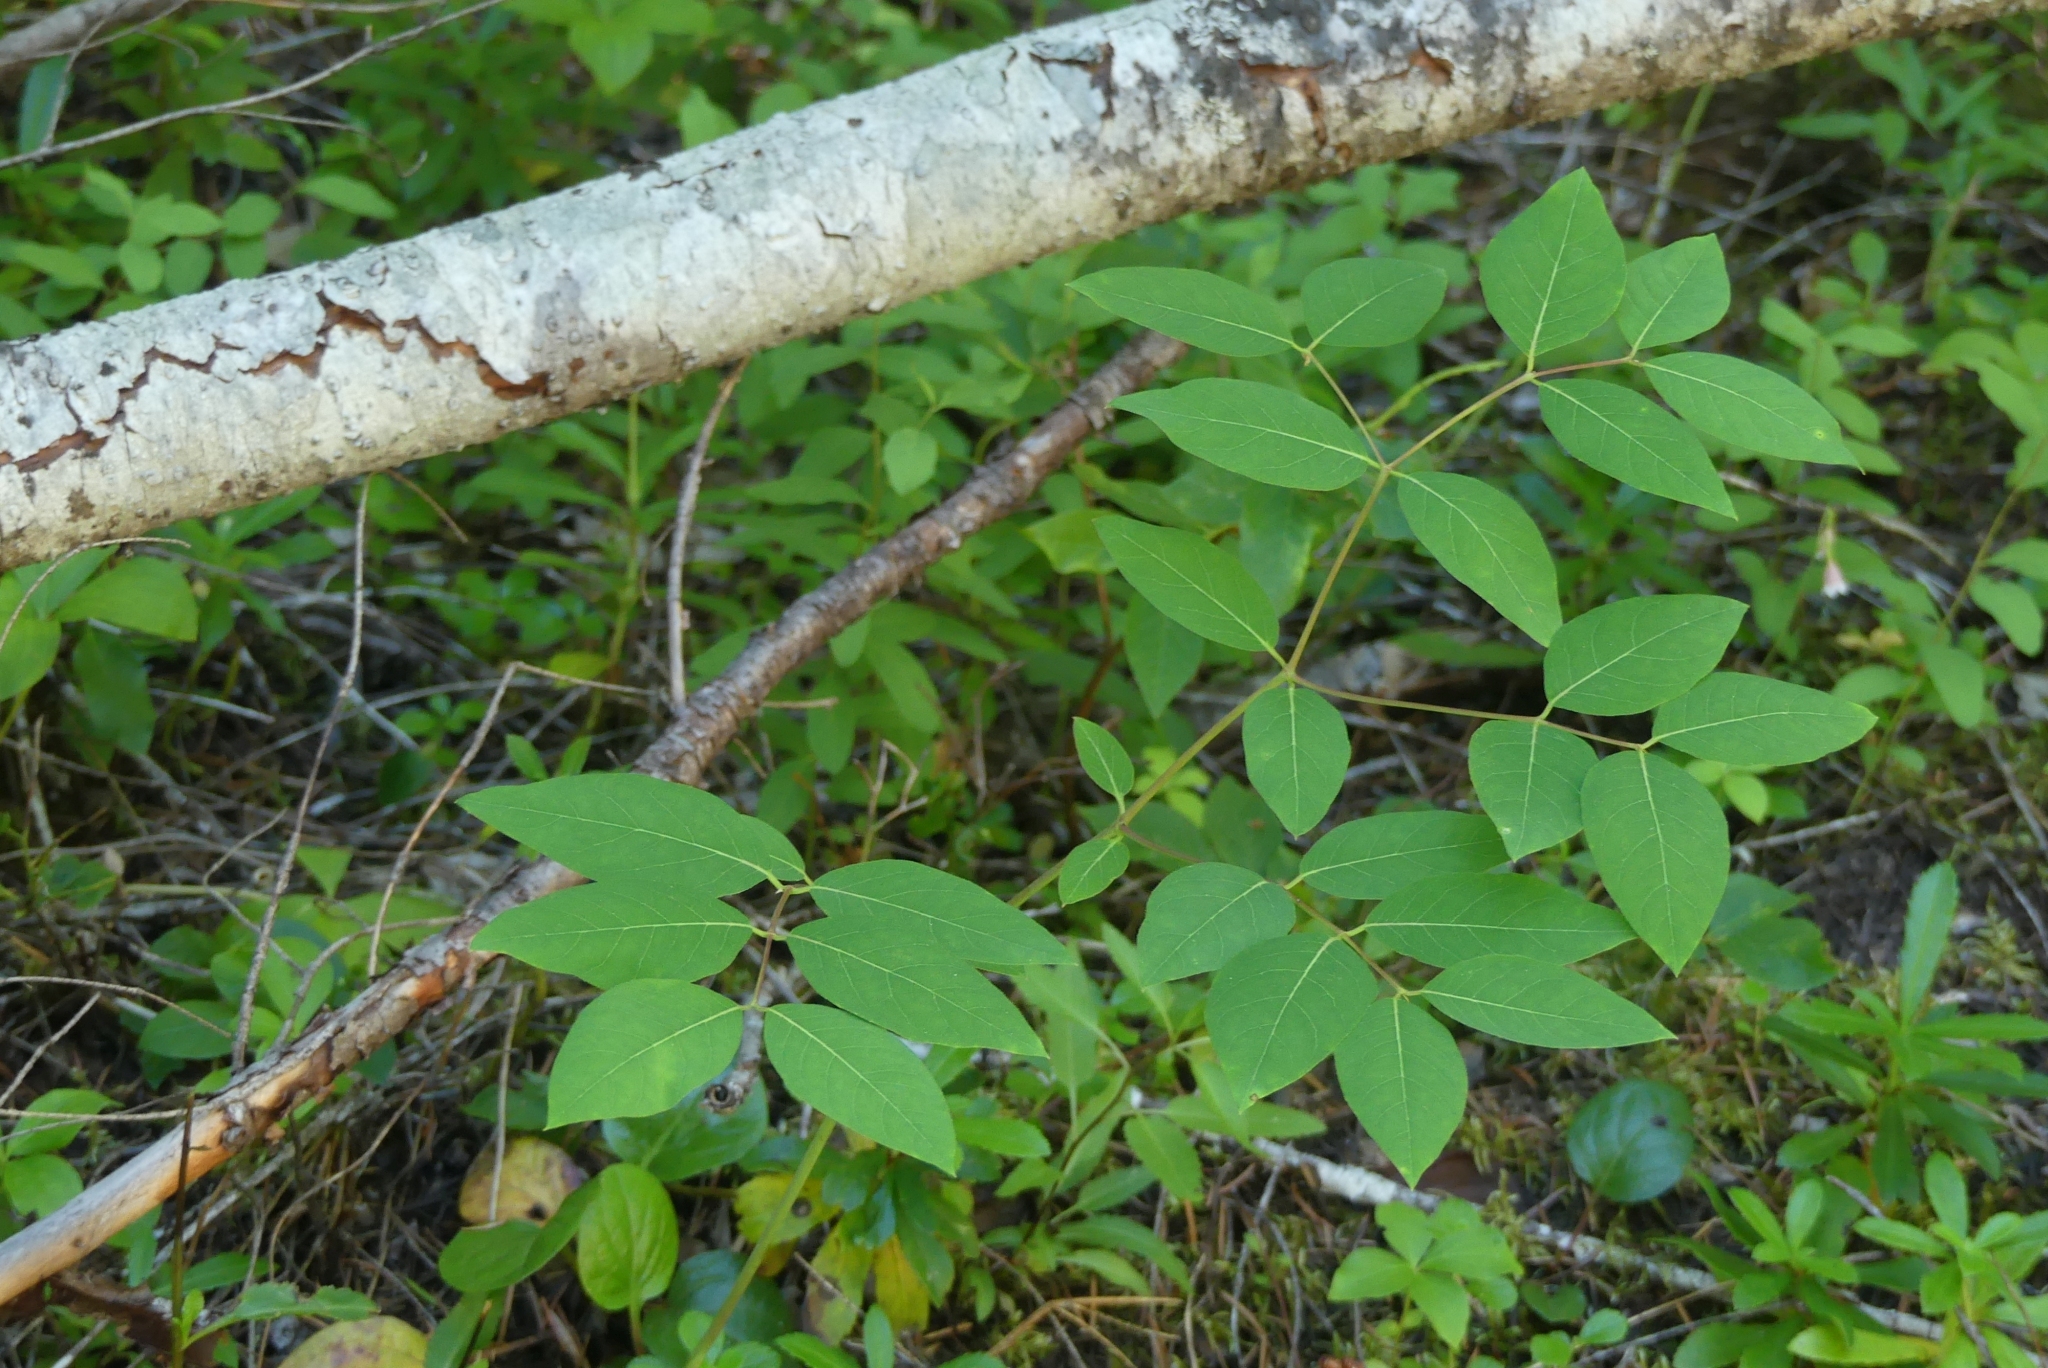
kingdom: Plantae
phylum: Tracheophyta
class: Magnoliopsida
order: Gentianales
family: Apocynaceae
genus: Apocynum
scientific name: Apocynum androsaemifolium
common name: Spreading dogbane
